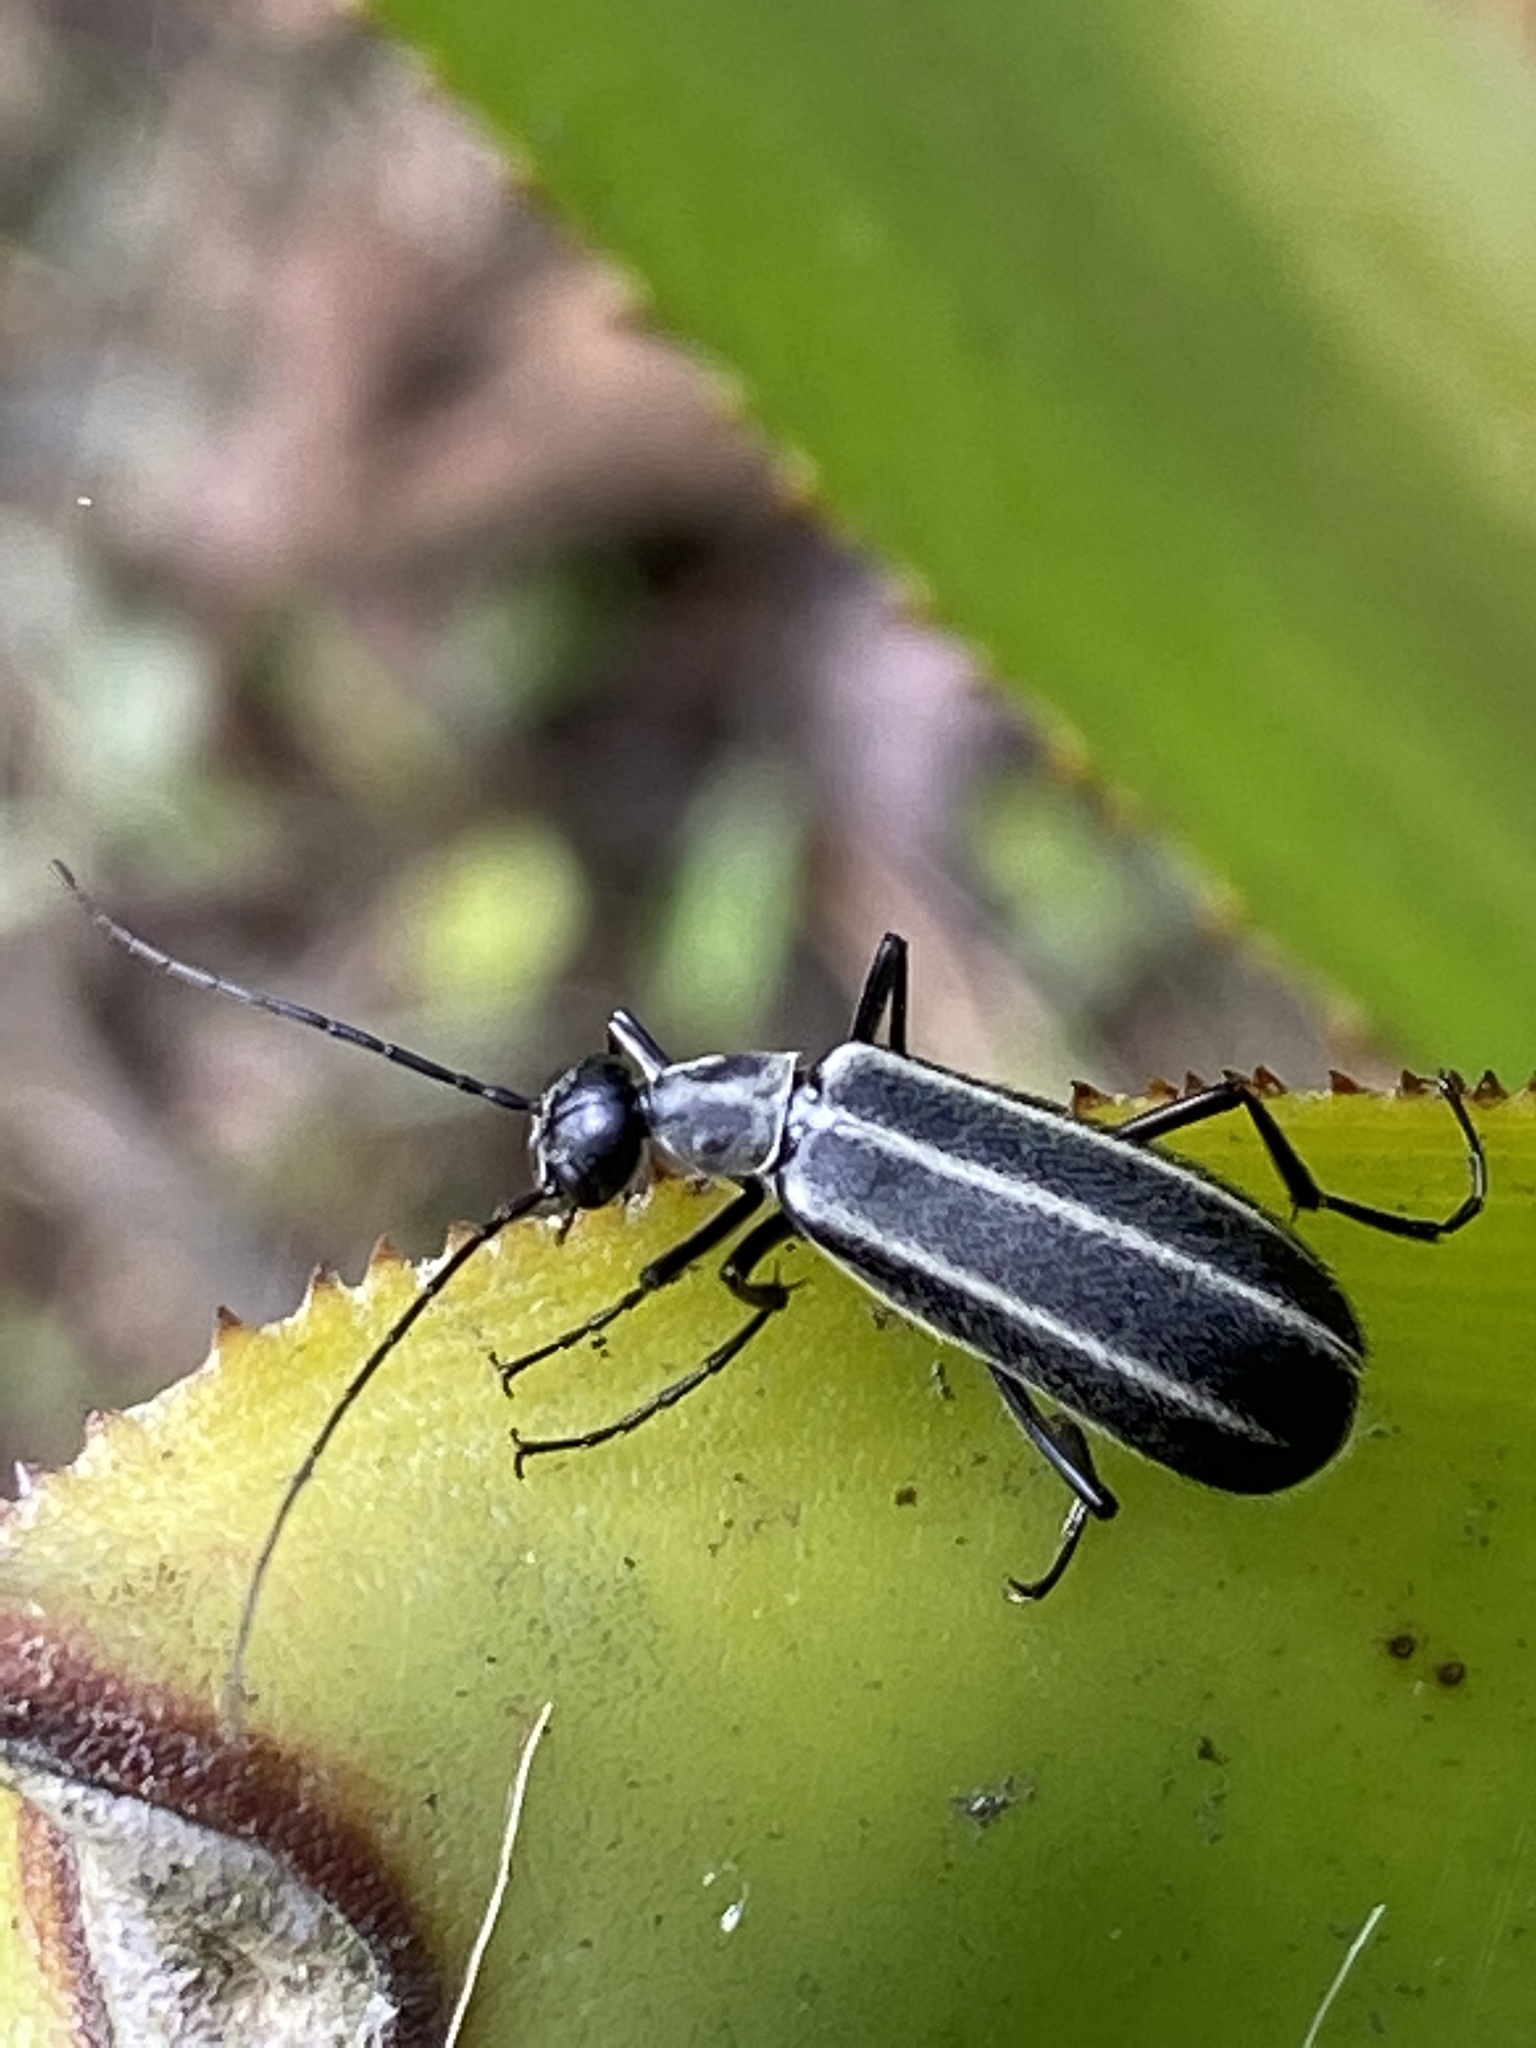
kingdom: Animalia
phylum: Arthropoda
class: Insecta
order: Coleoptera
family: Meloidae
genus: Epicauta
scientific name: Epicauta
